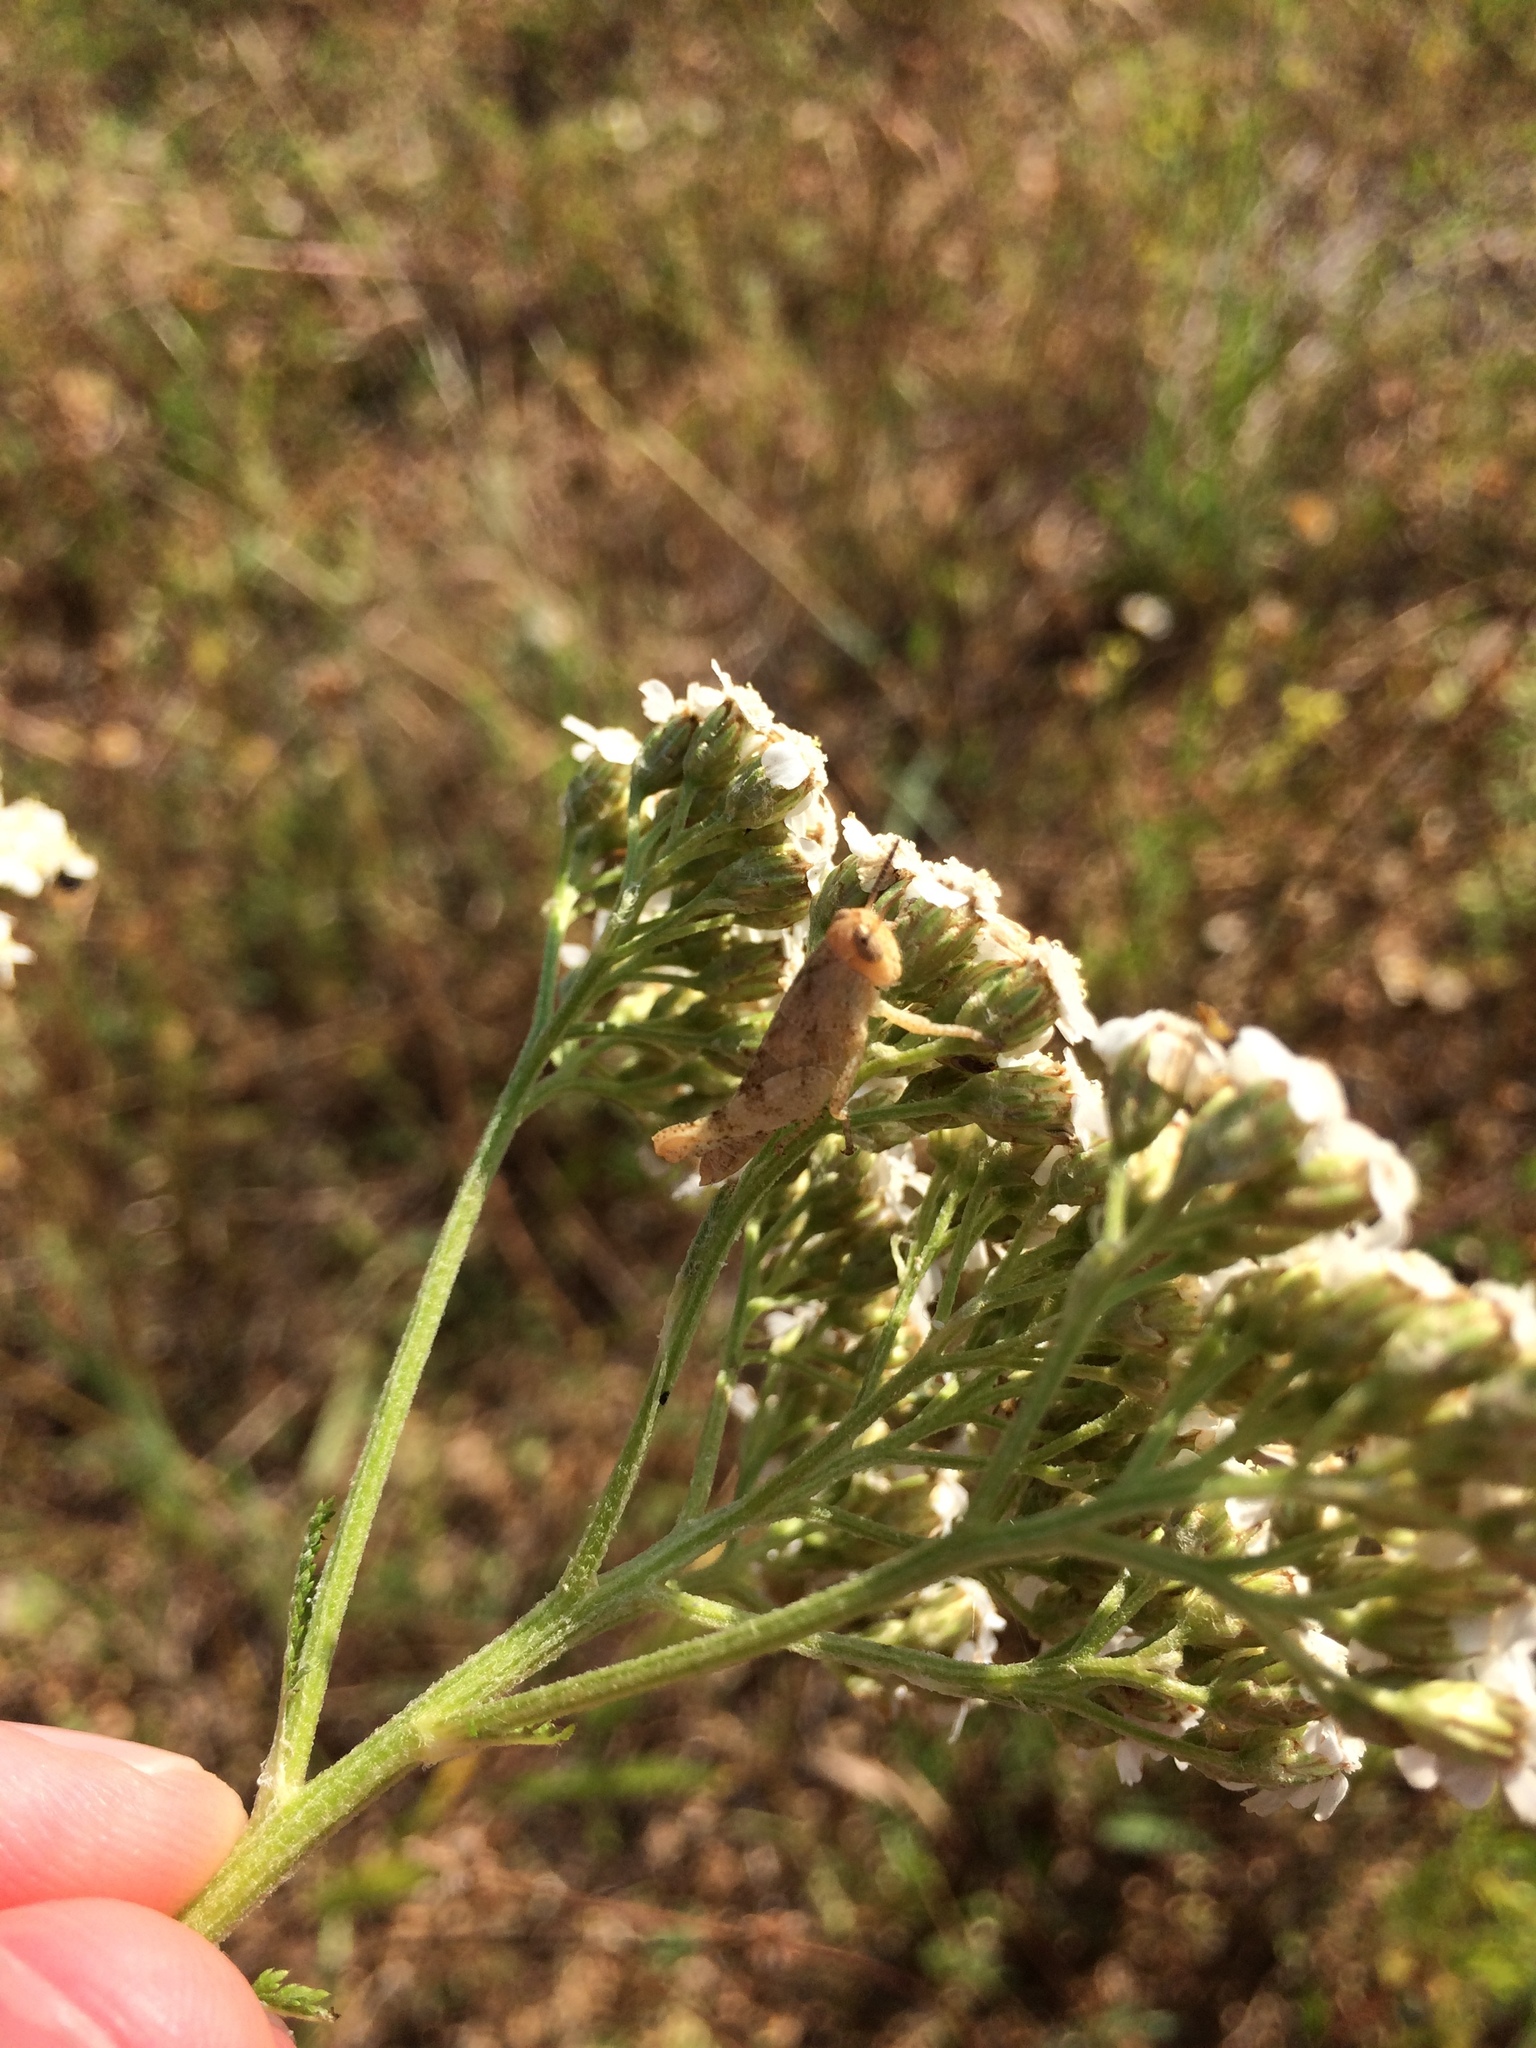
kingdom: Animalia
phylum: Arthropoda
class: Insecta
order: Orthoptera
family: Acrididae
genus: Pezotettix
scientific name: Pezotettix giornae
